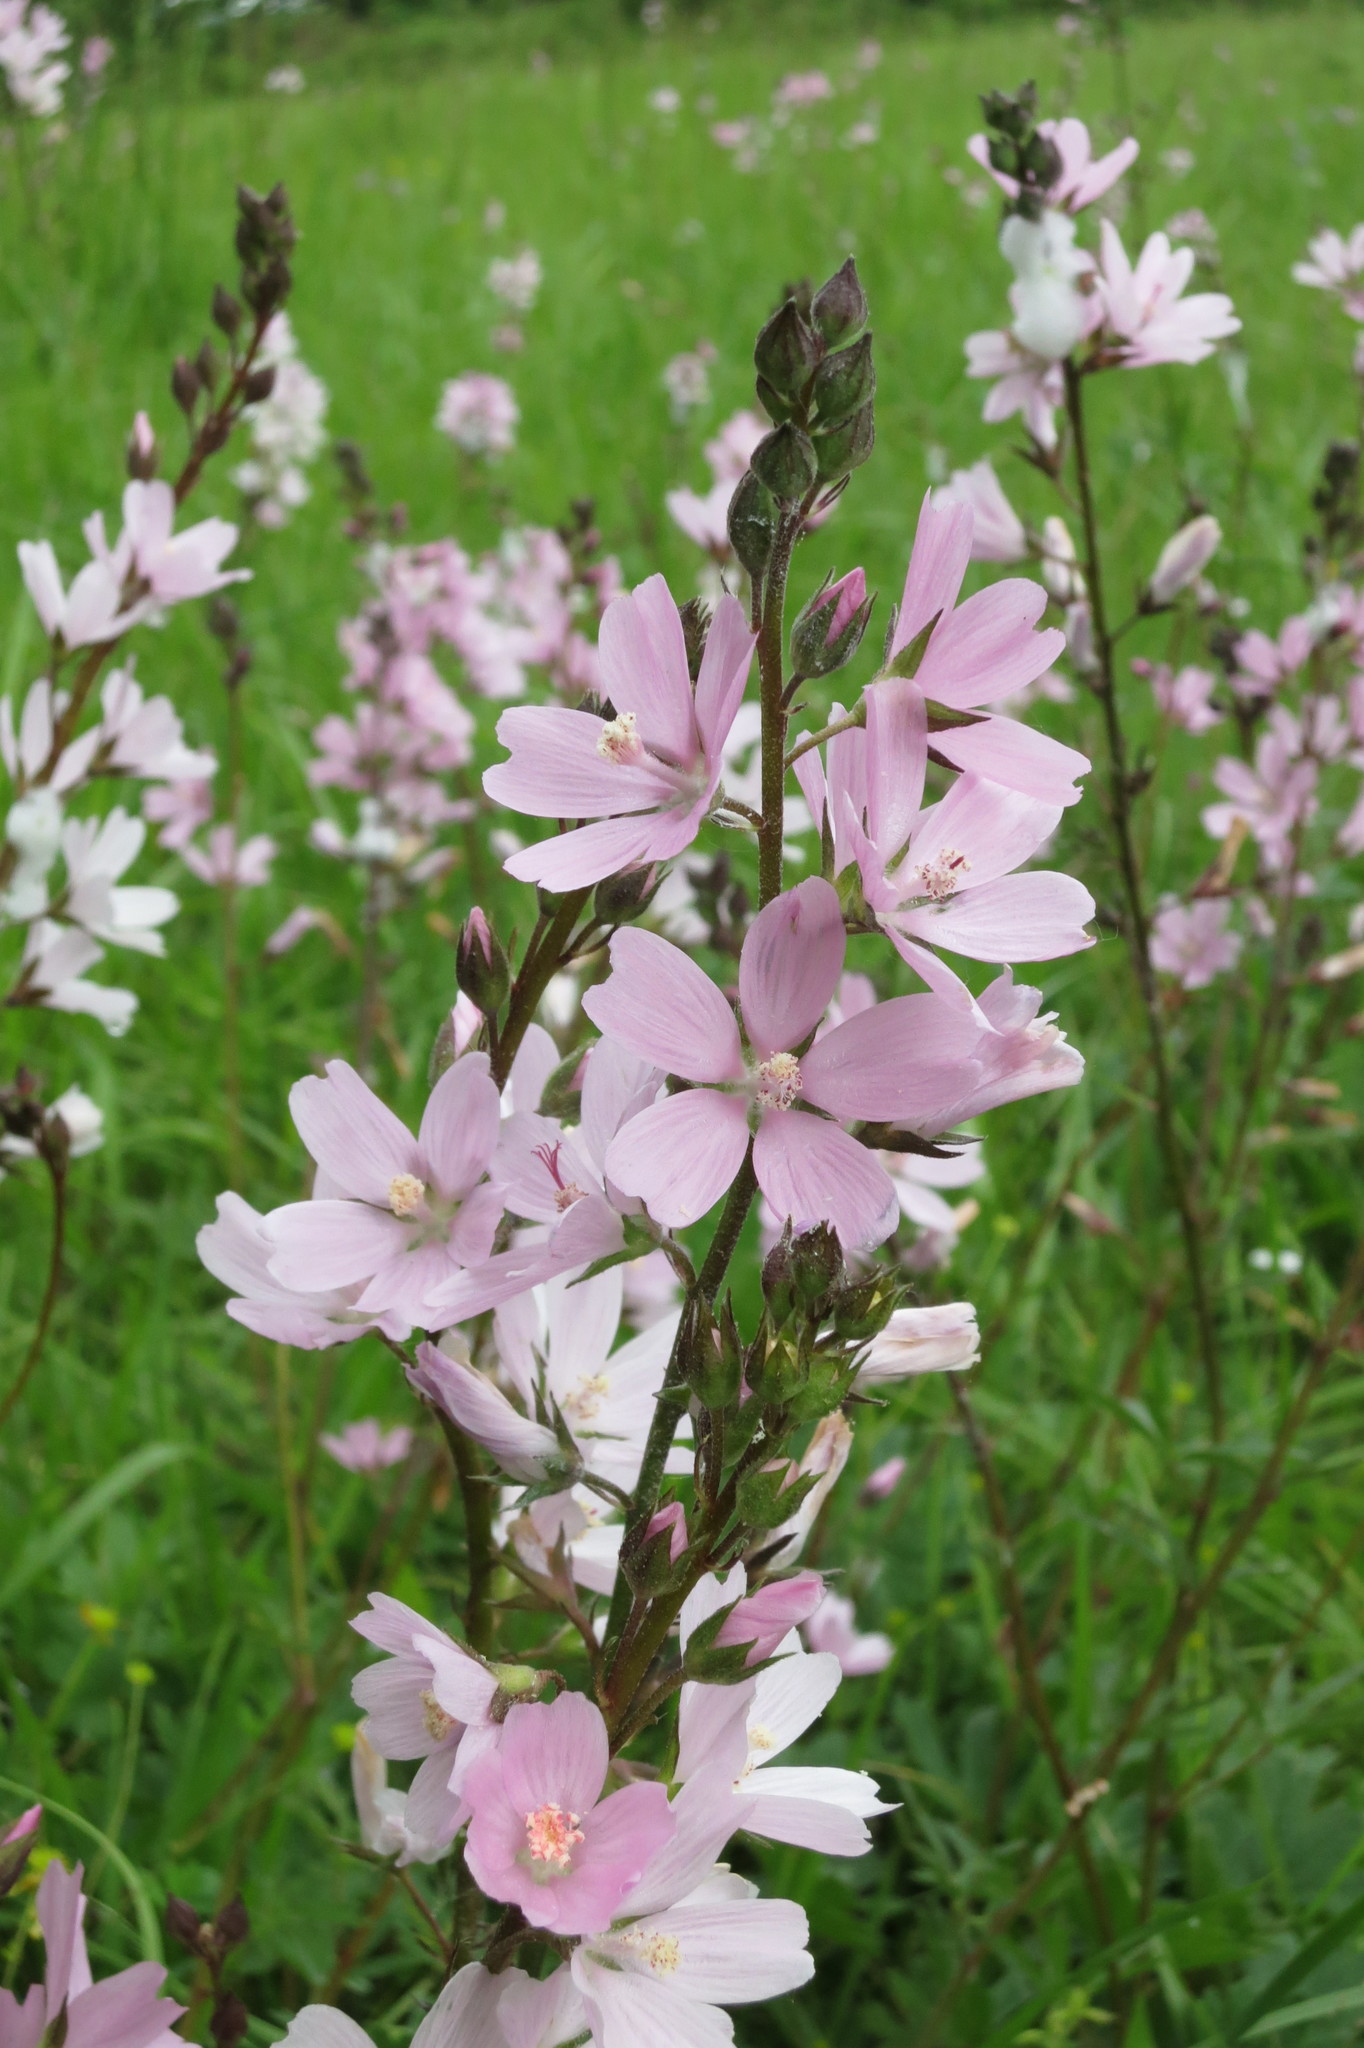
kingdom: Plantae
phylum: Tracheophyta
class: Magnoliopsida
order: Malvales
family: Malvaceae
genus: Sidalcea
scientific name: Sidalcea asprella
